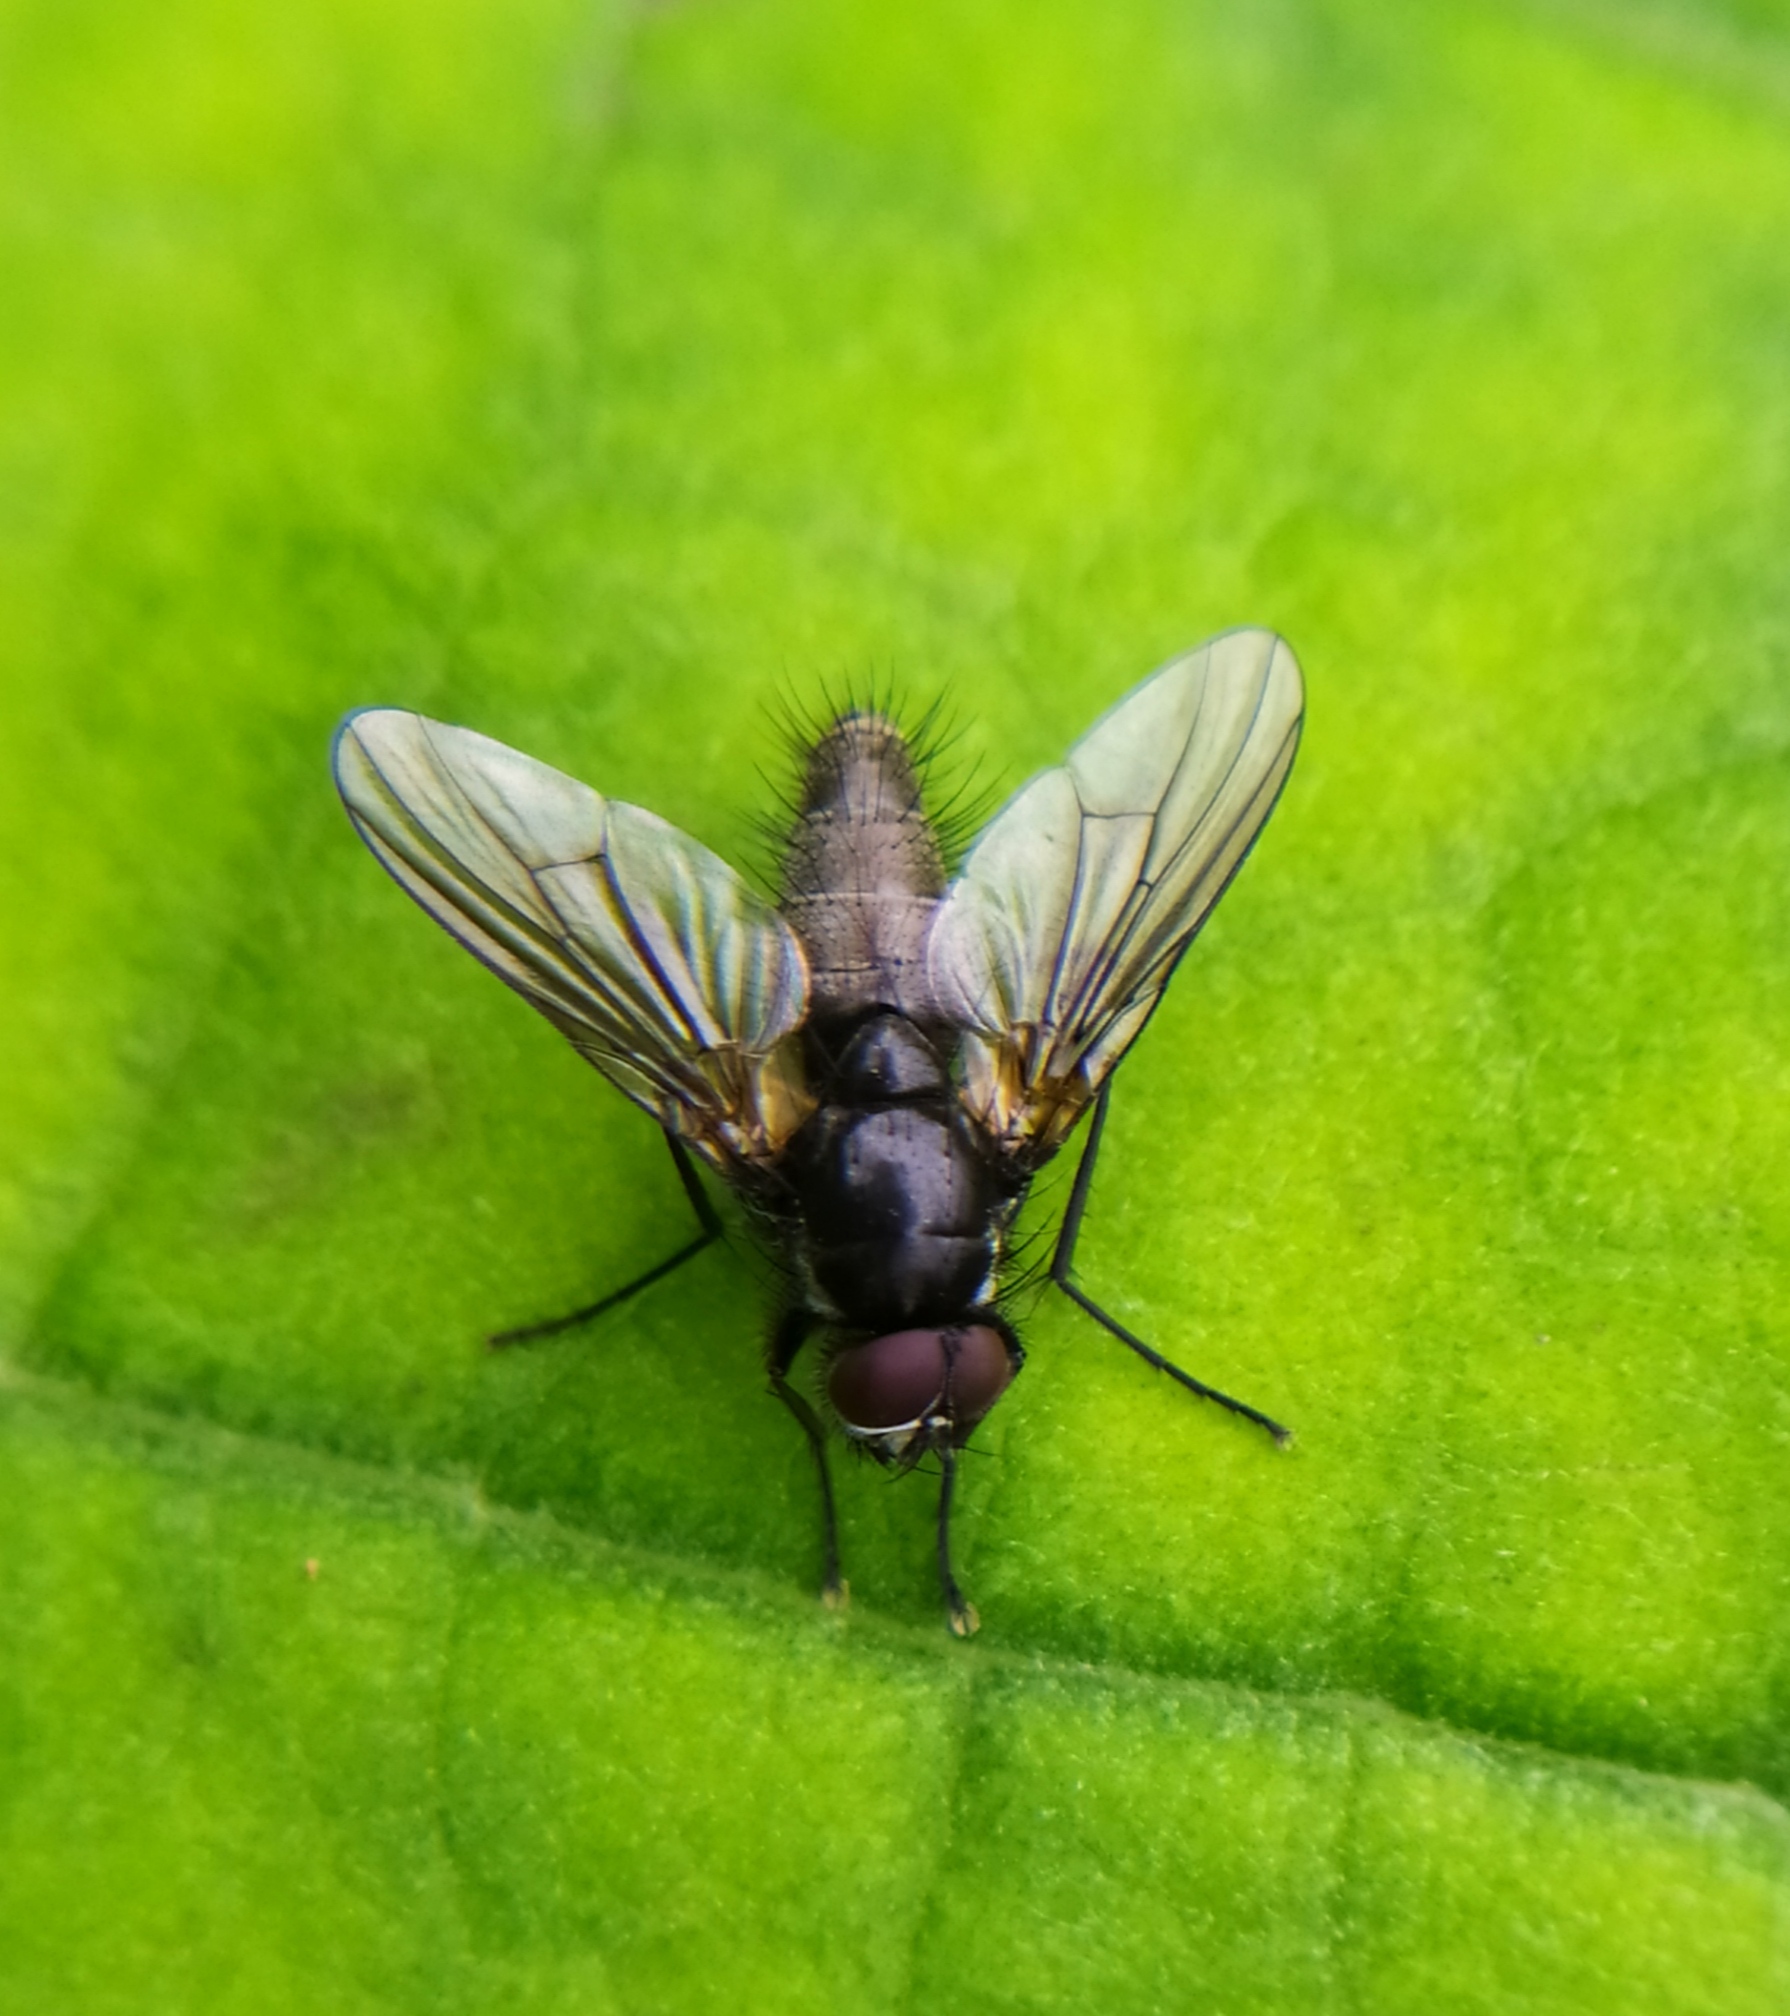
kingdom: Animalia
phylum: Arthropoda
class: Insecta
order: Diptera
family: Muscidae
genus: Thricops
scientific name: Thricops nigrifrons
